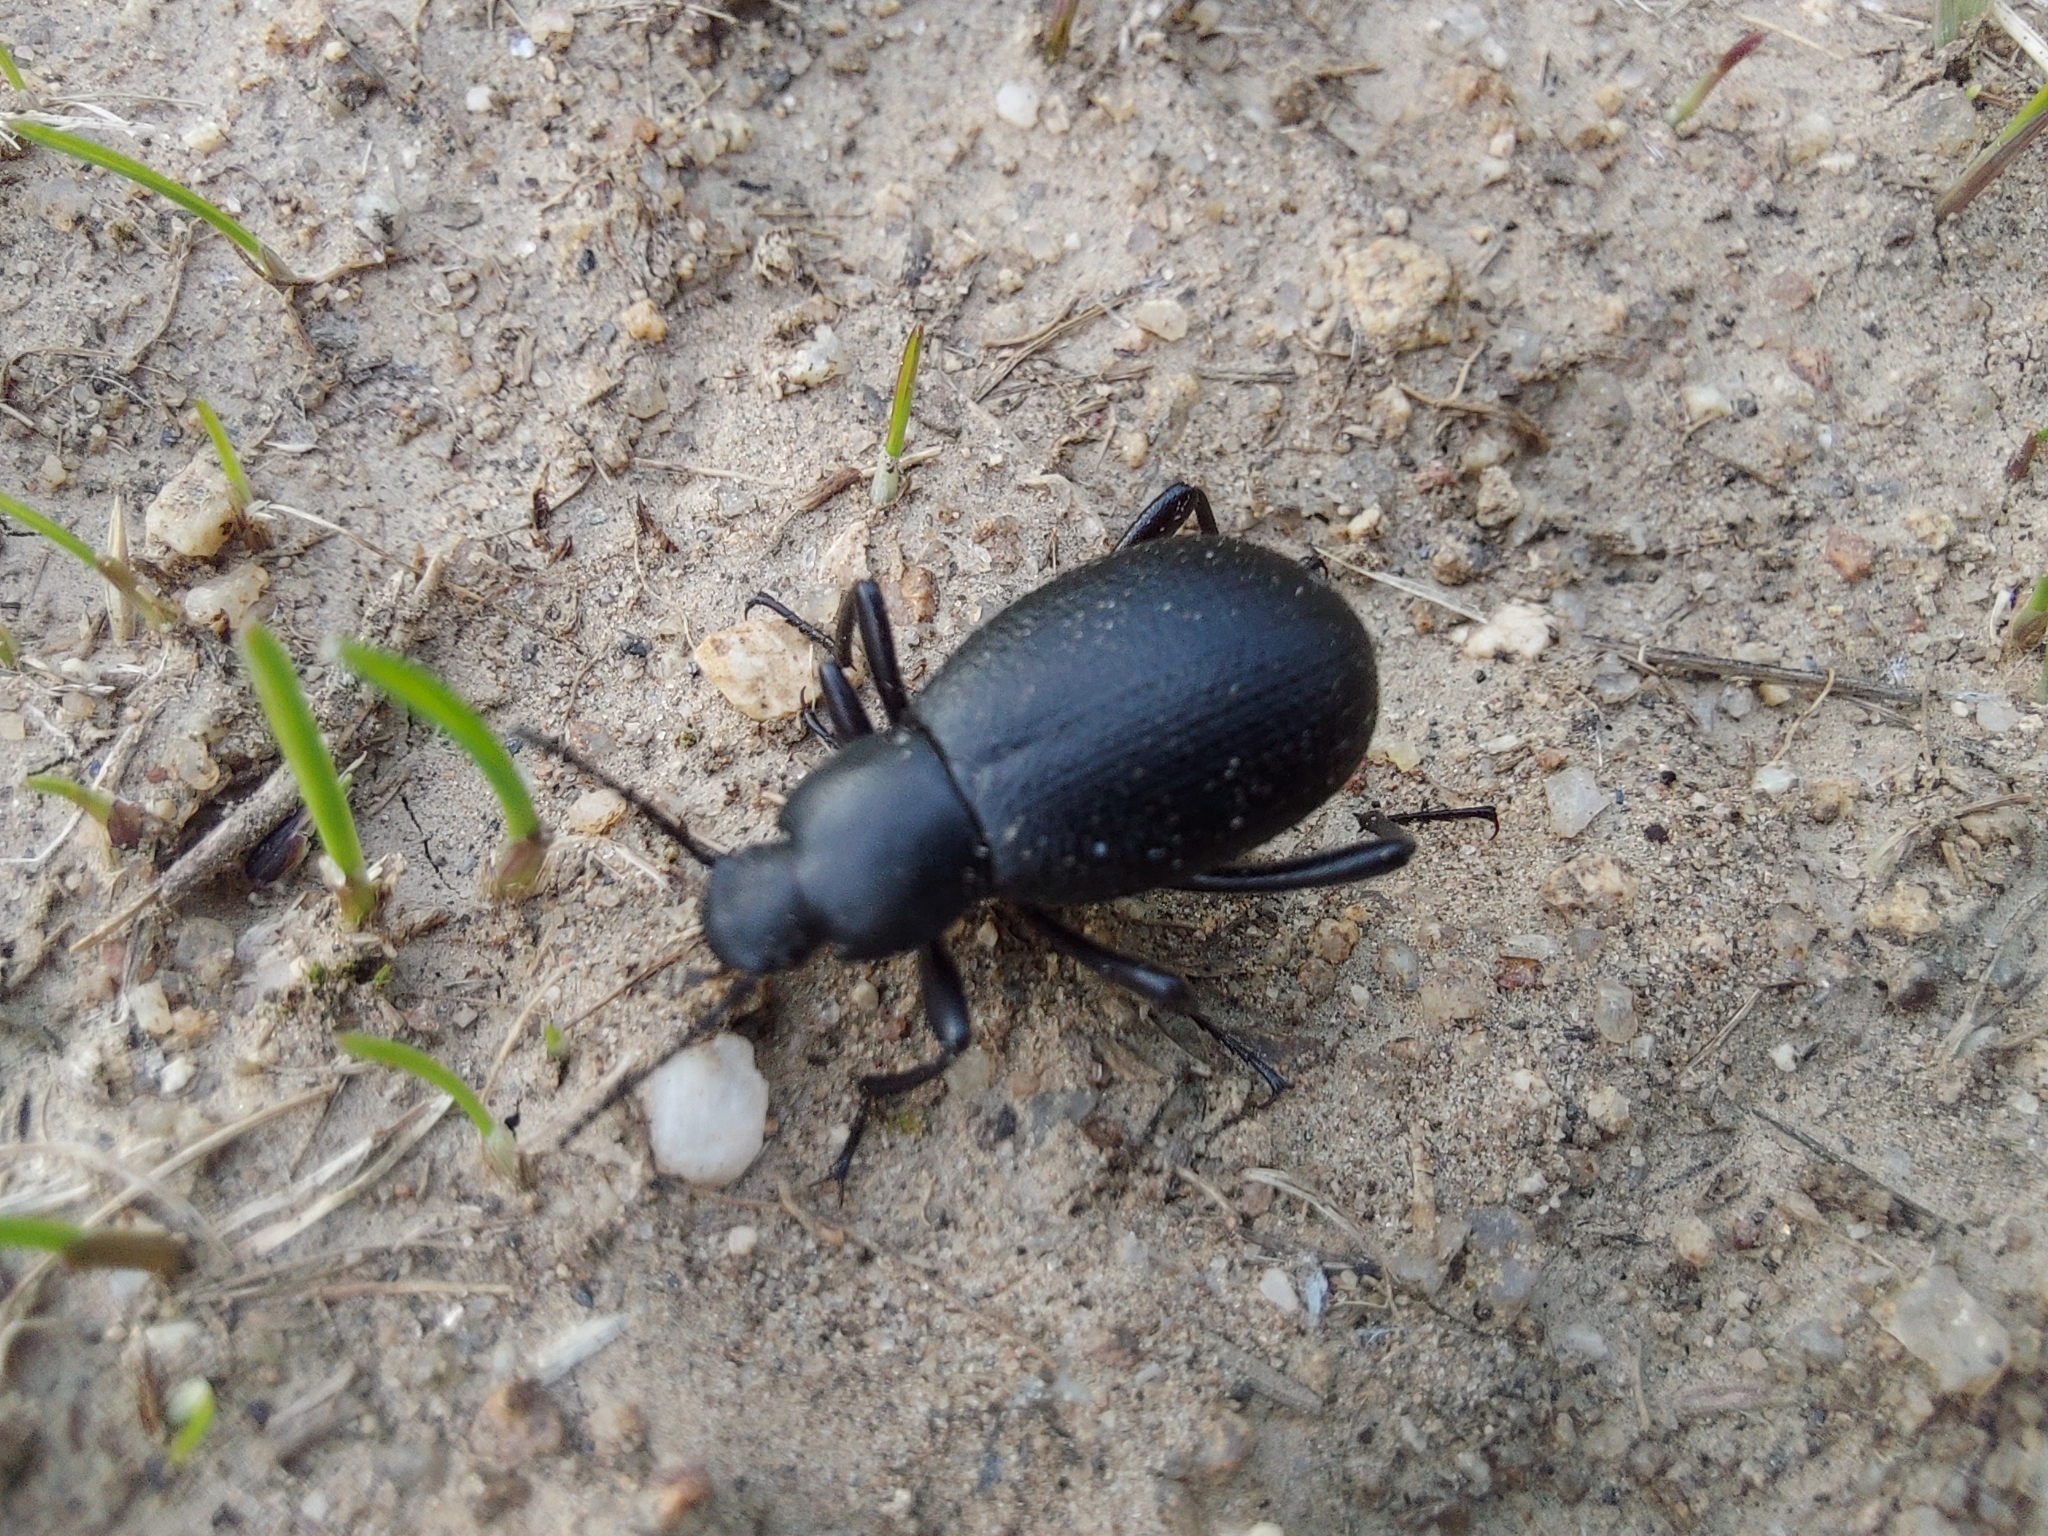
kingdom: Animalia
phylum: Arthropoda
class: Insecta
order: Coleoptera
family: Tenebrionidae
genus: Eleodes
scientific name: Eleodes extricata
